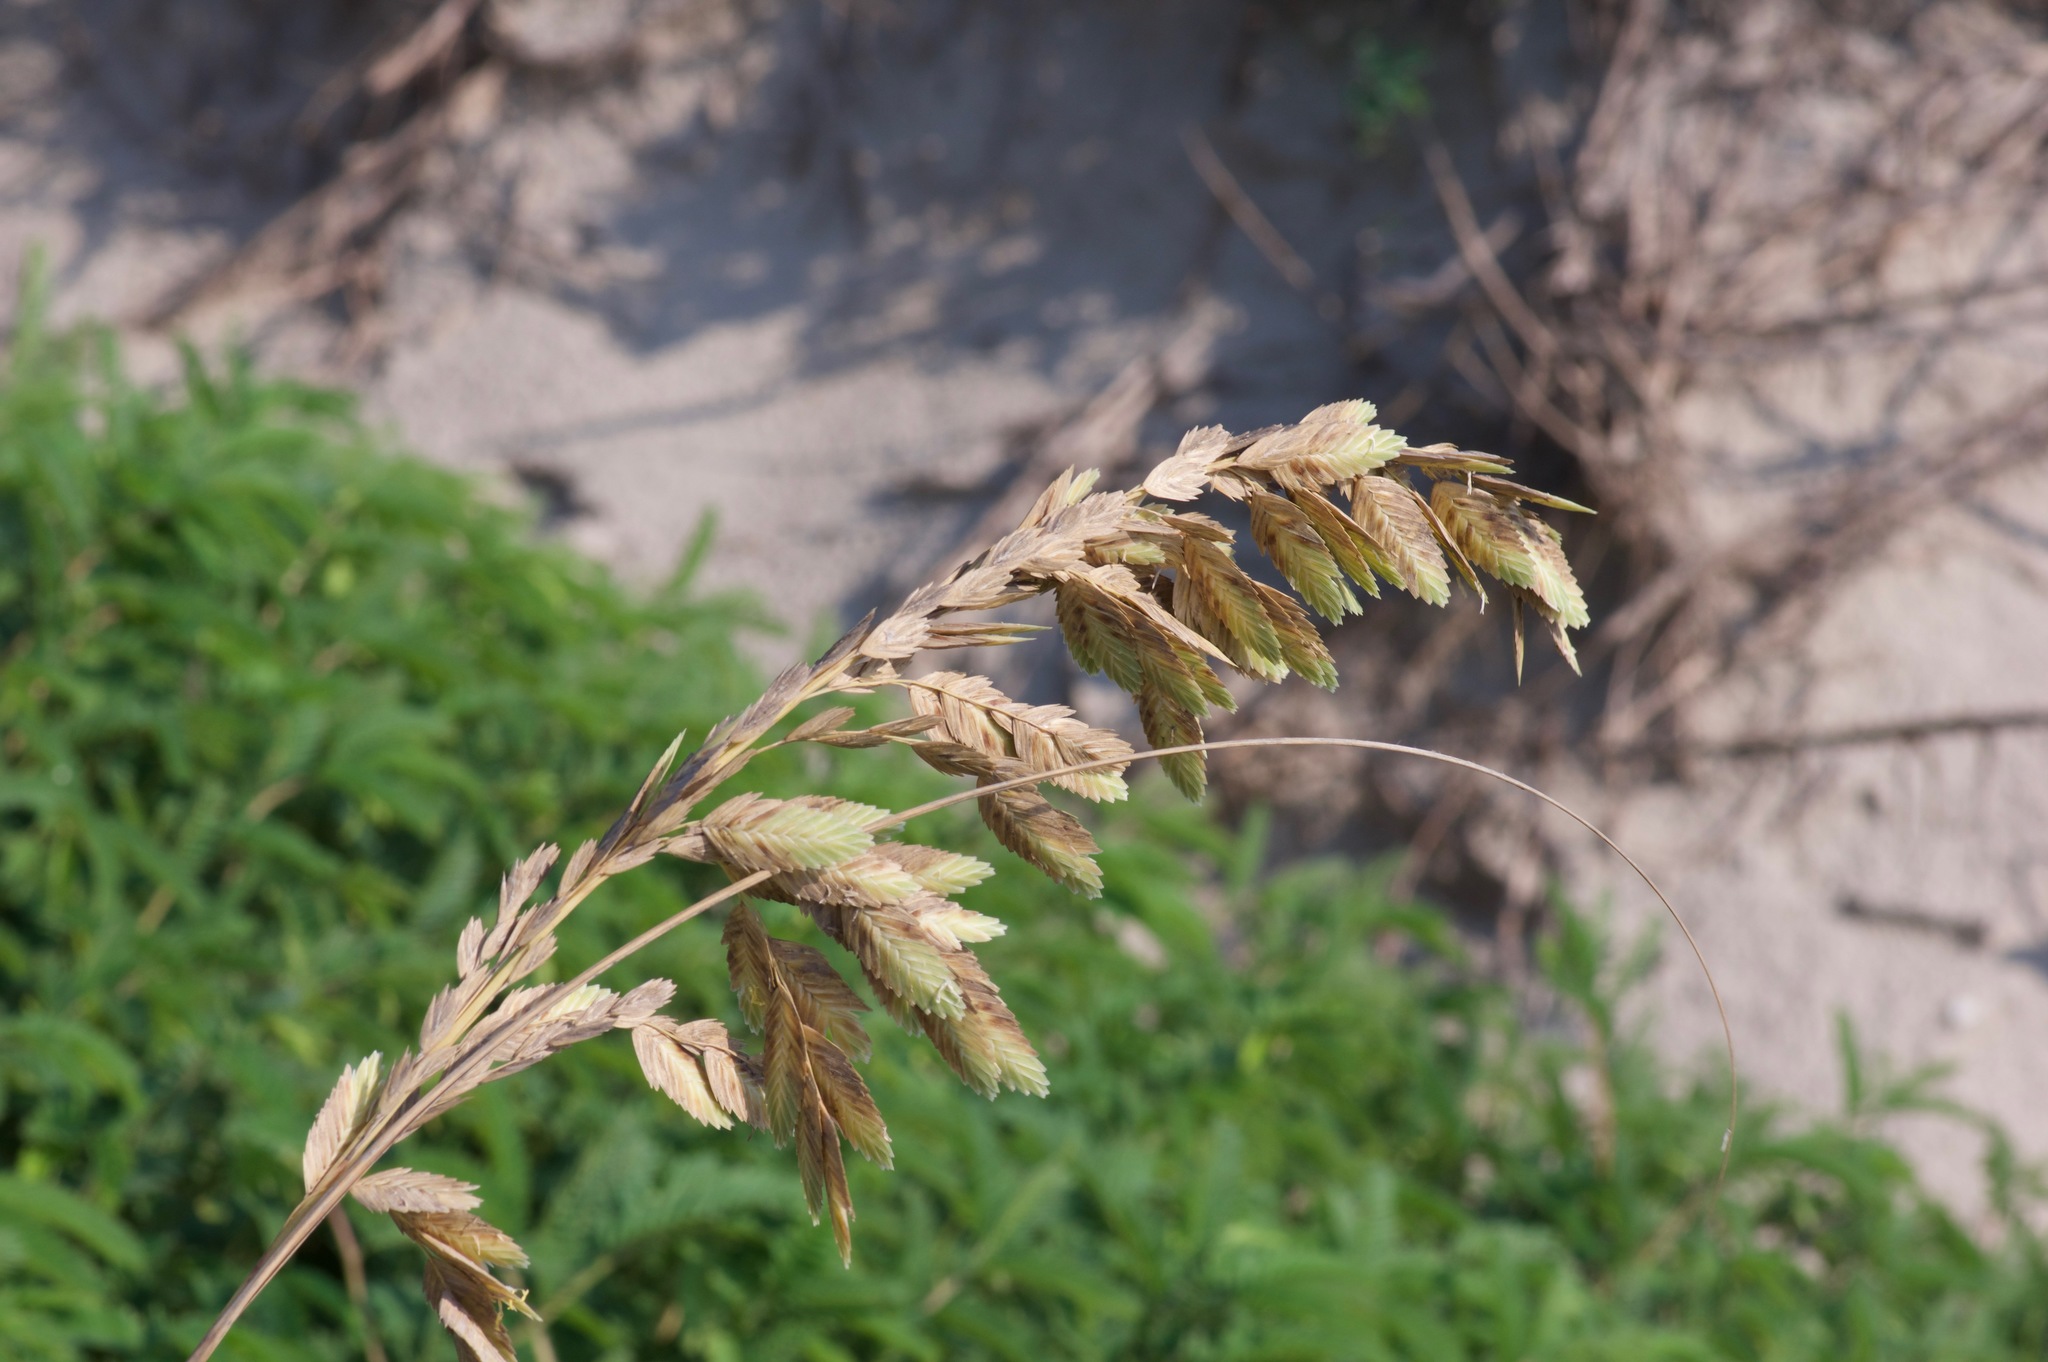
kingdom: Plantae
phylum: Tracheophyta
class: Liliopsida
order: Poales
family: Poaceae
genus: Uniola
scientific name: Uniola paniculata
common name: Seaside-oats
